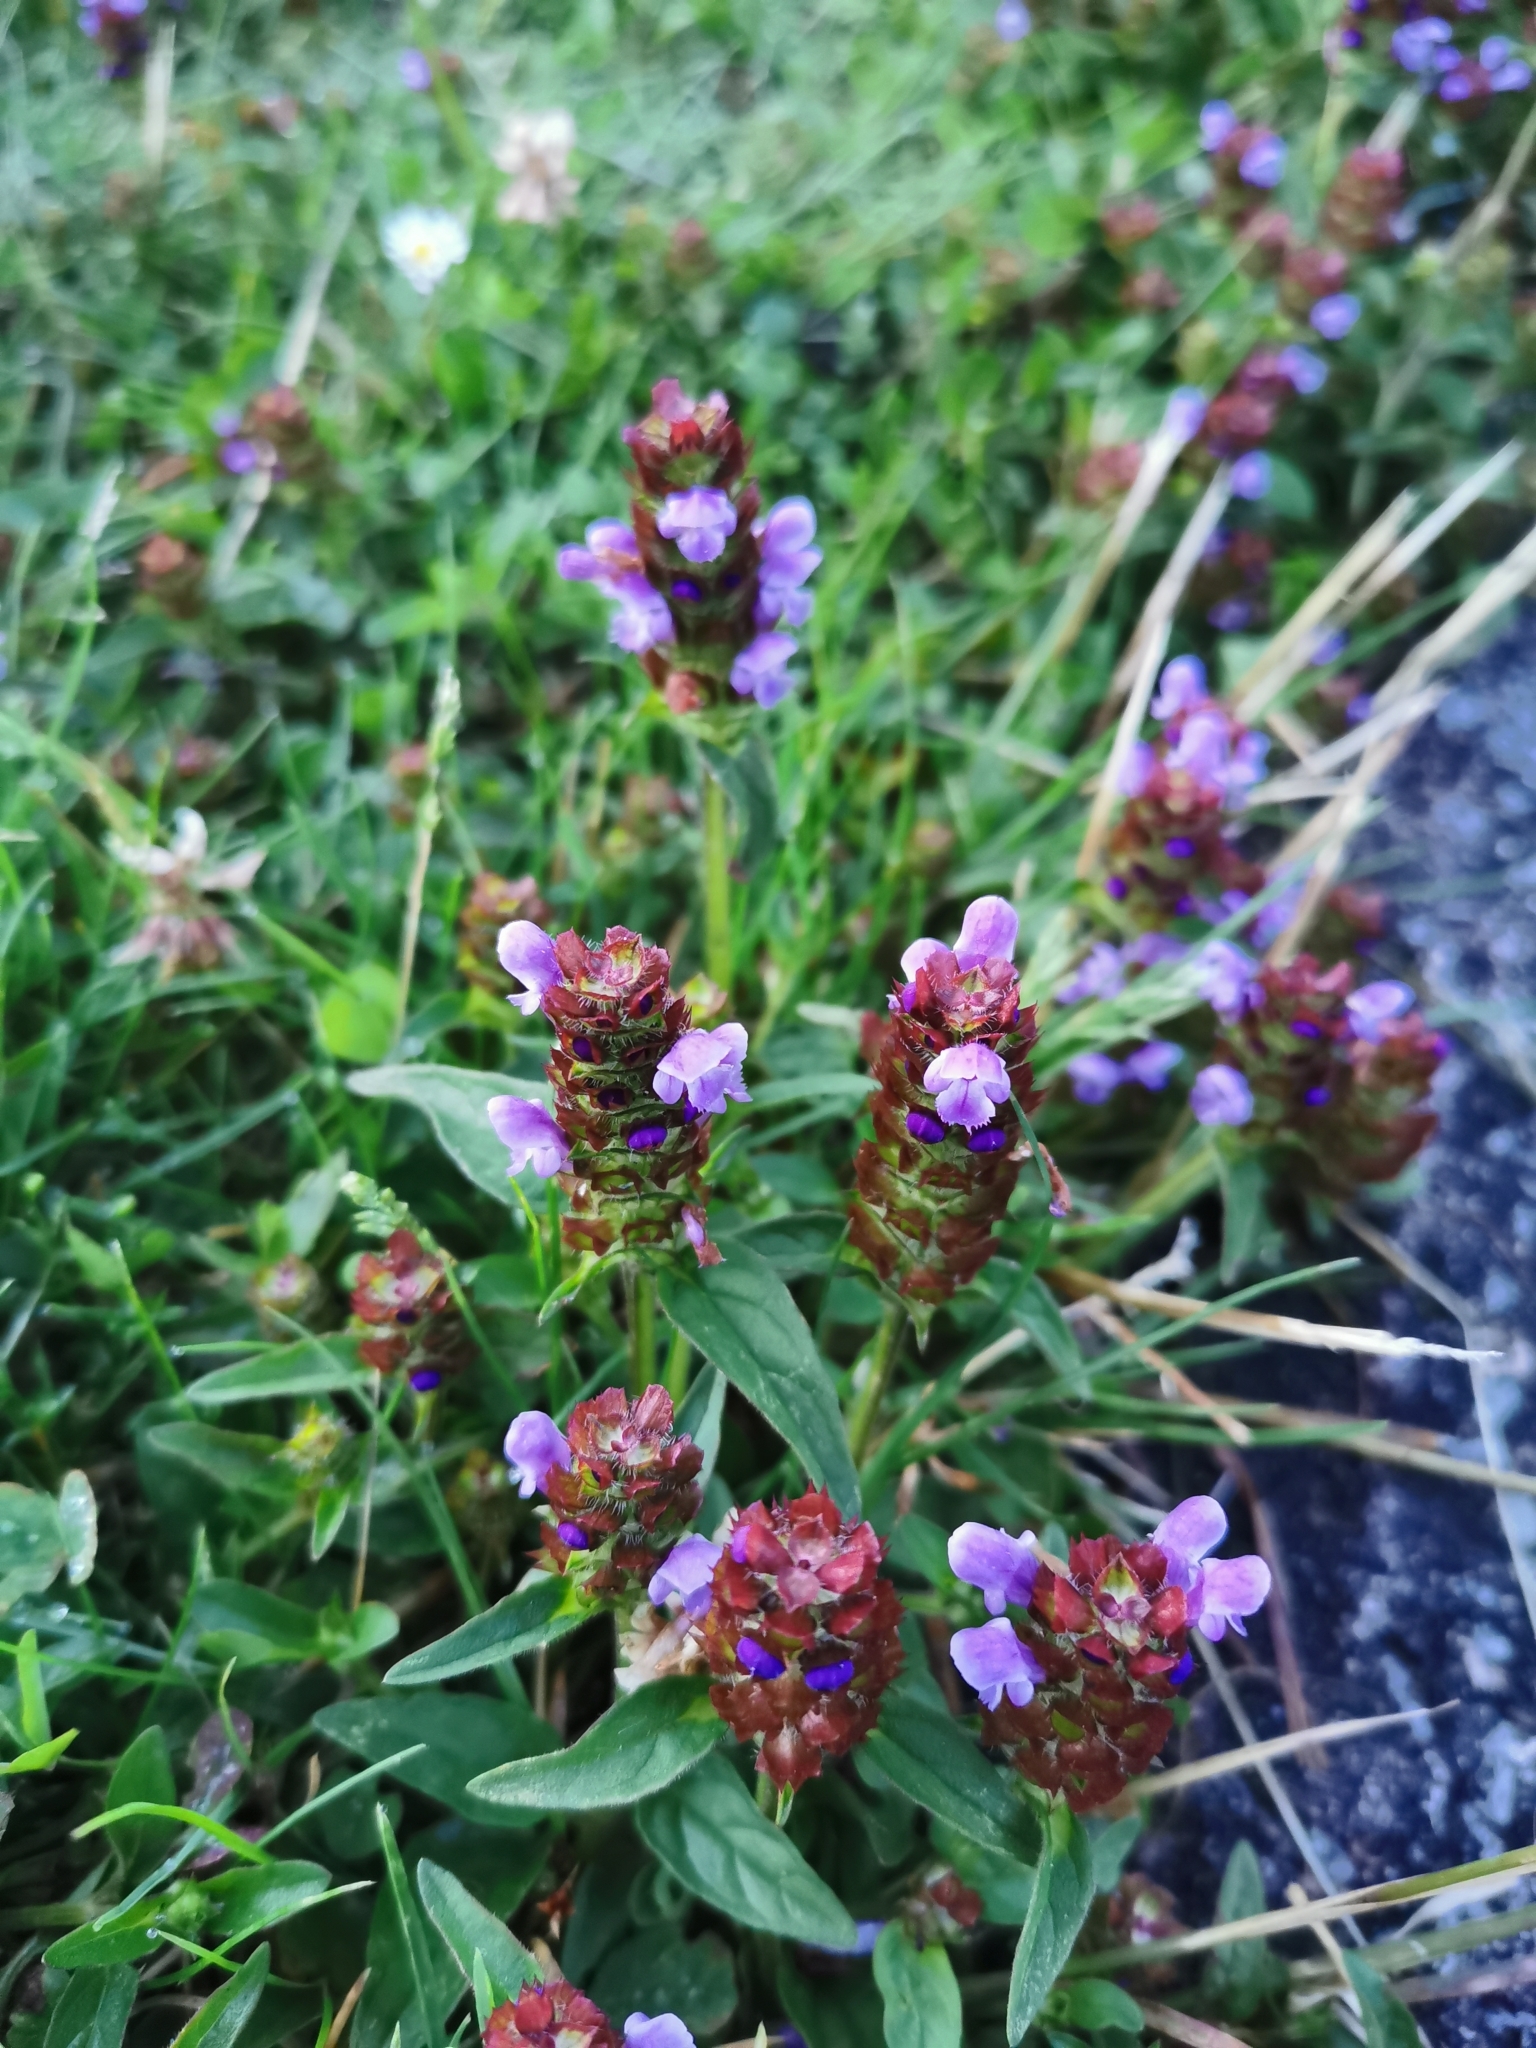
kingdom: Plantae
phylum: Tracheophyta
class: Magnoliopsida
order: Lamiales
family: Lamiaceae
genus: Prunella
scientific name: Prunella vulgaris
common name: Heal-all
